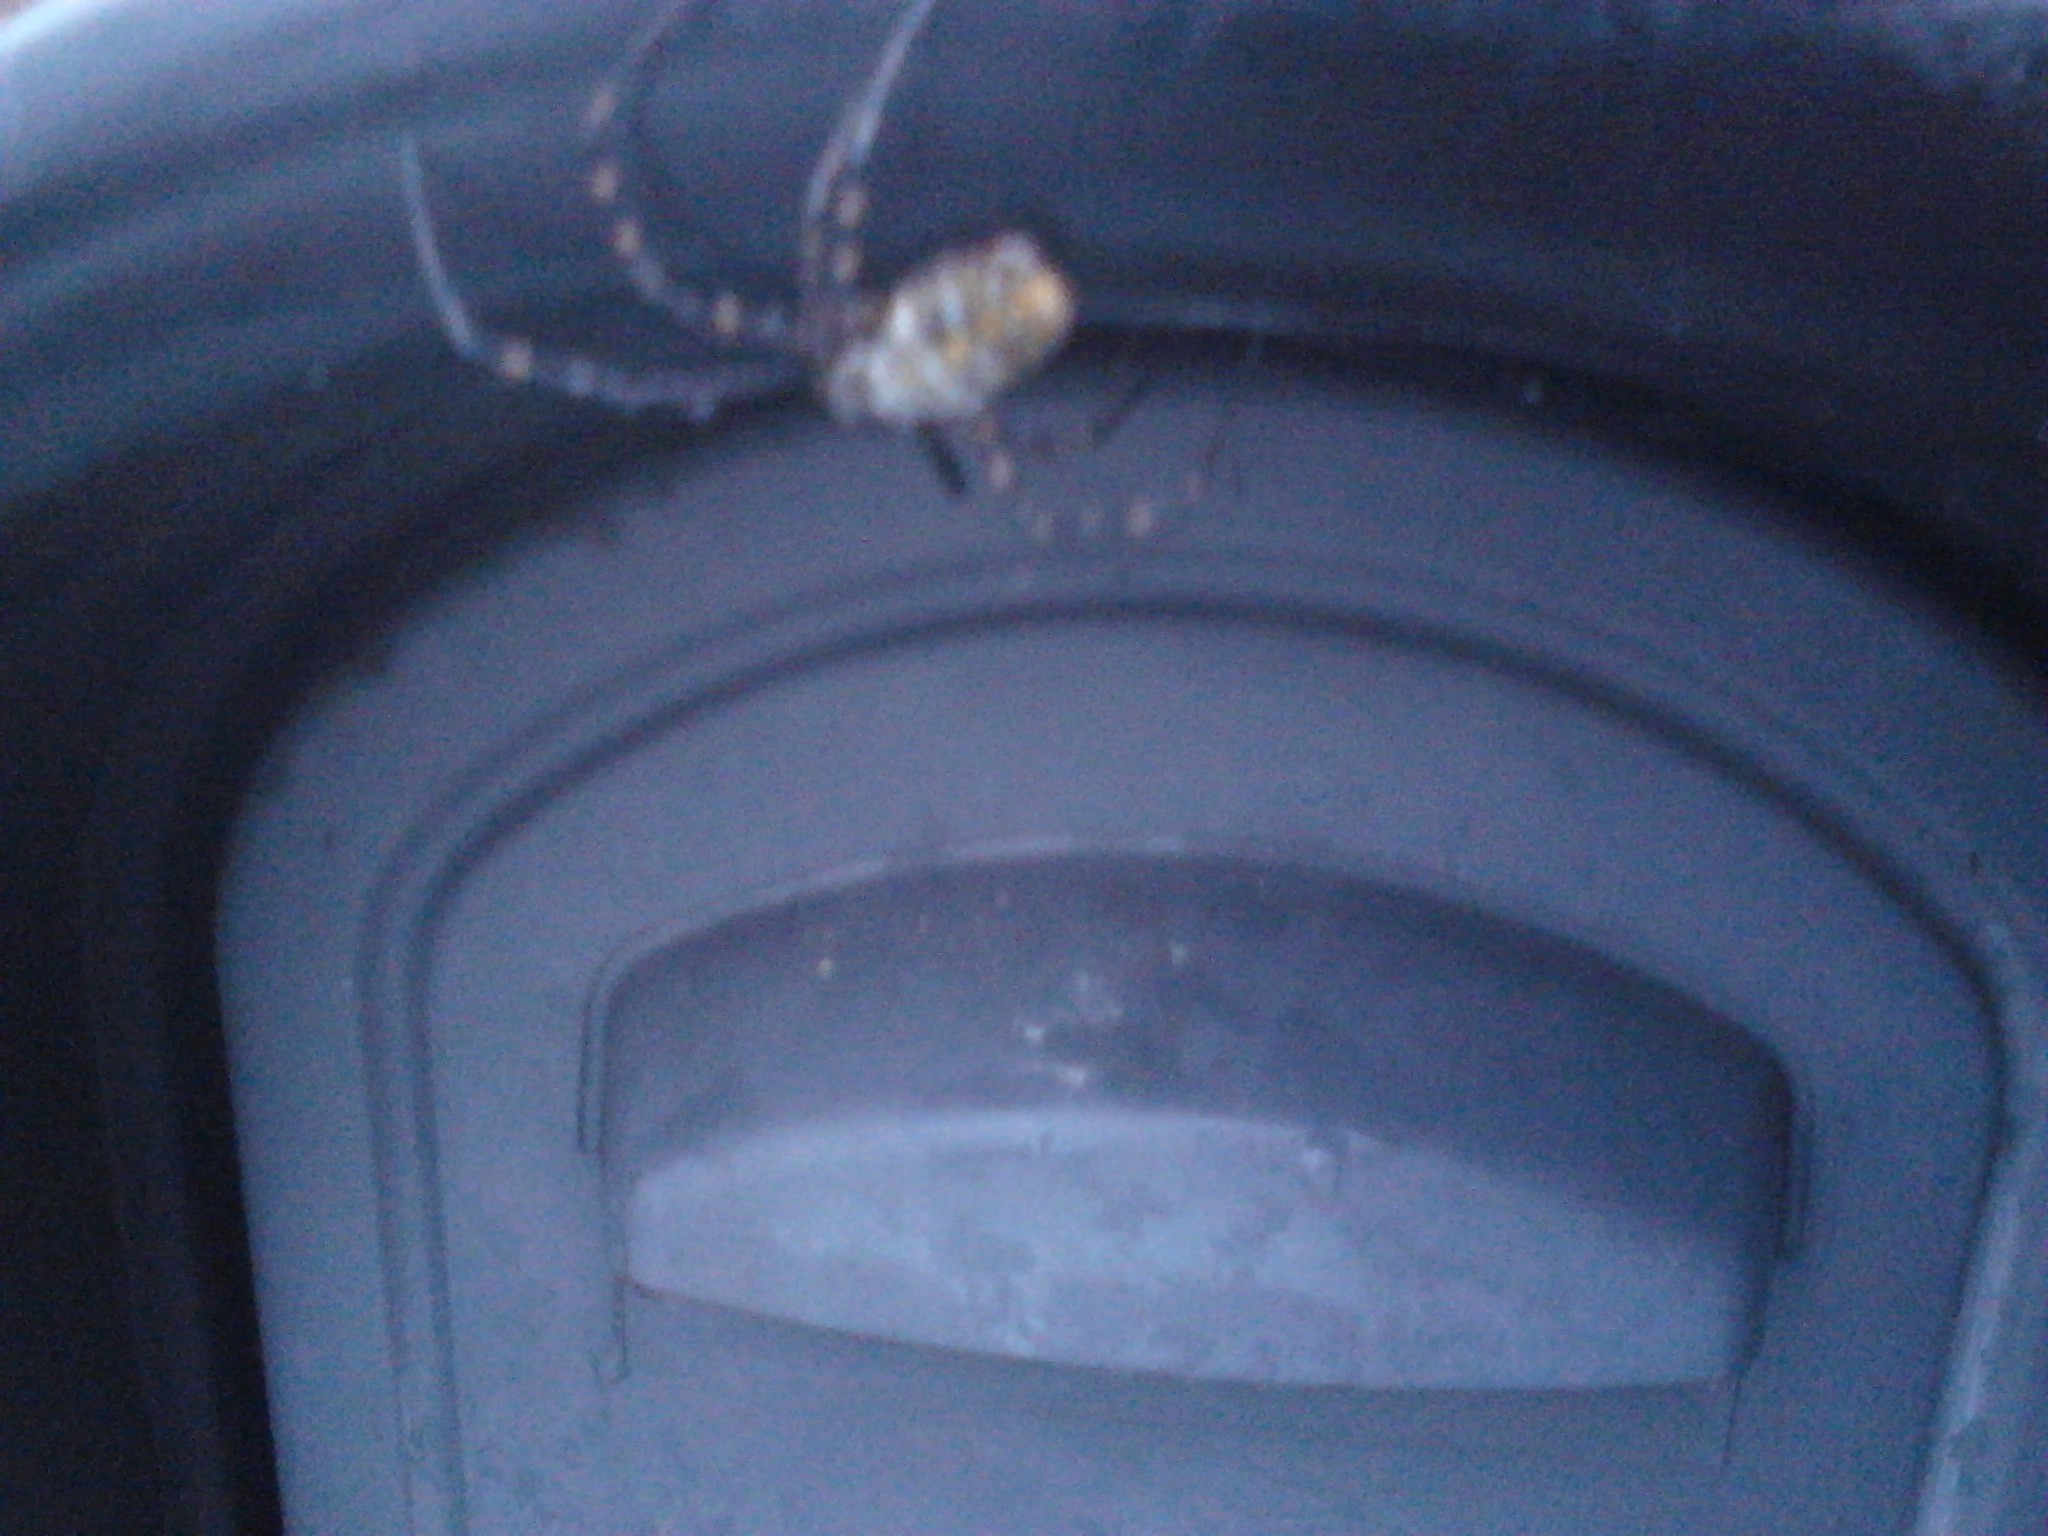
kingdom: Animalia
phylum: Arthropoda
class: Arachnida
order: Araneae
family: Araneidae
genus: Argiope
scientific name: Argiope trifasciata
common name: Banded garden spider
